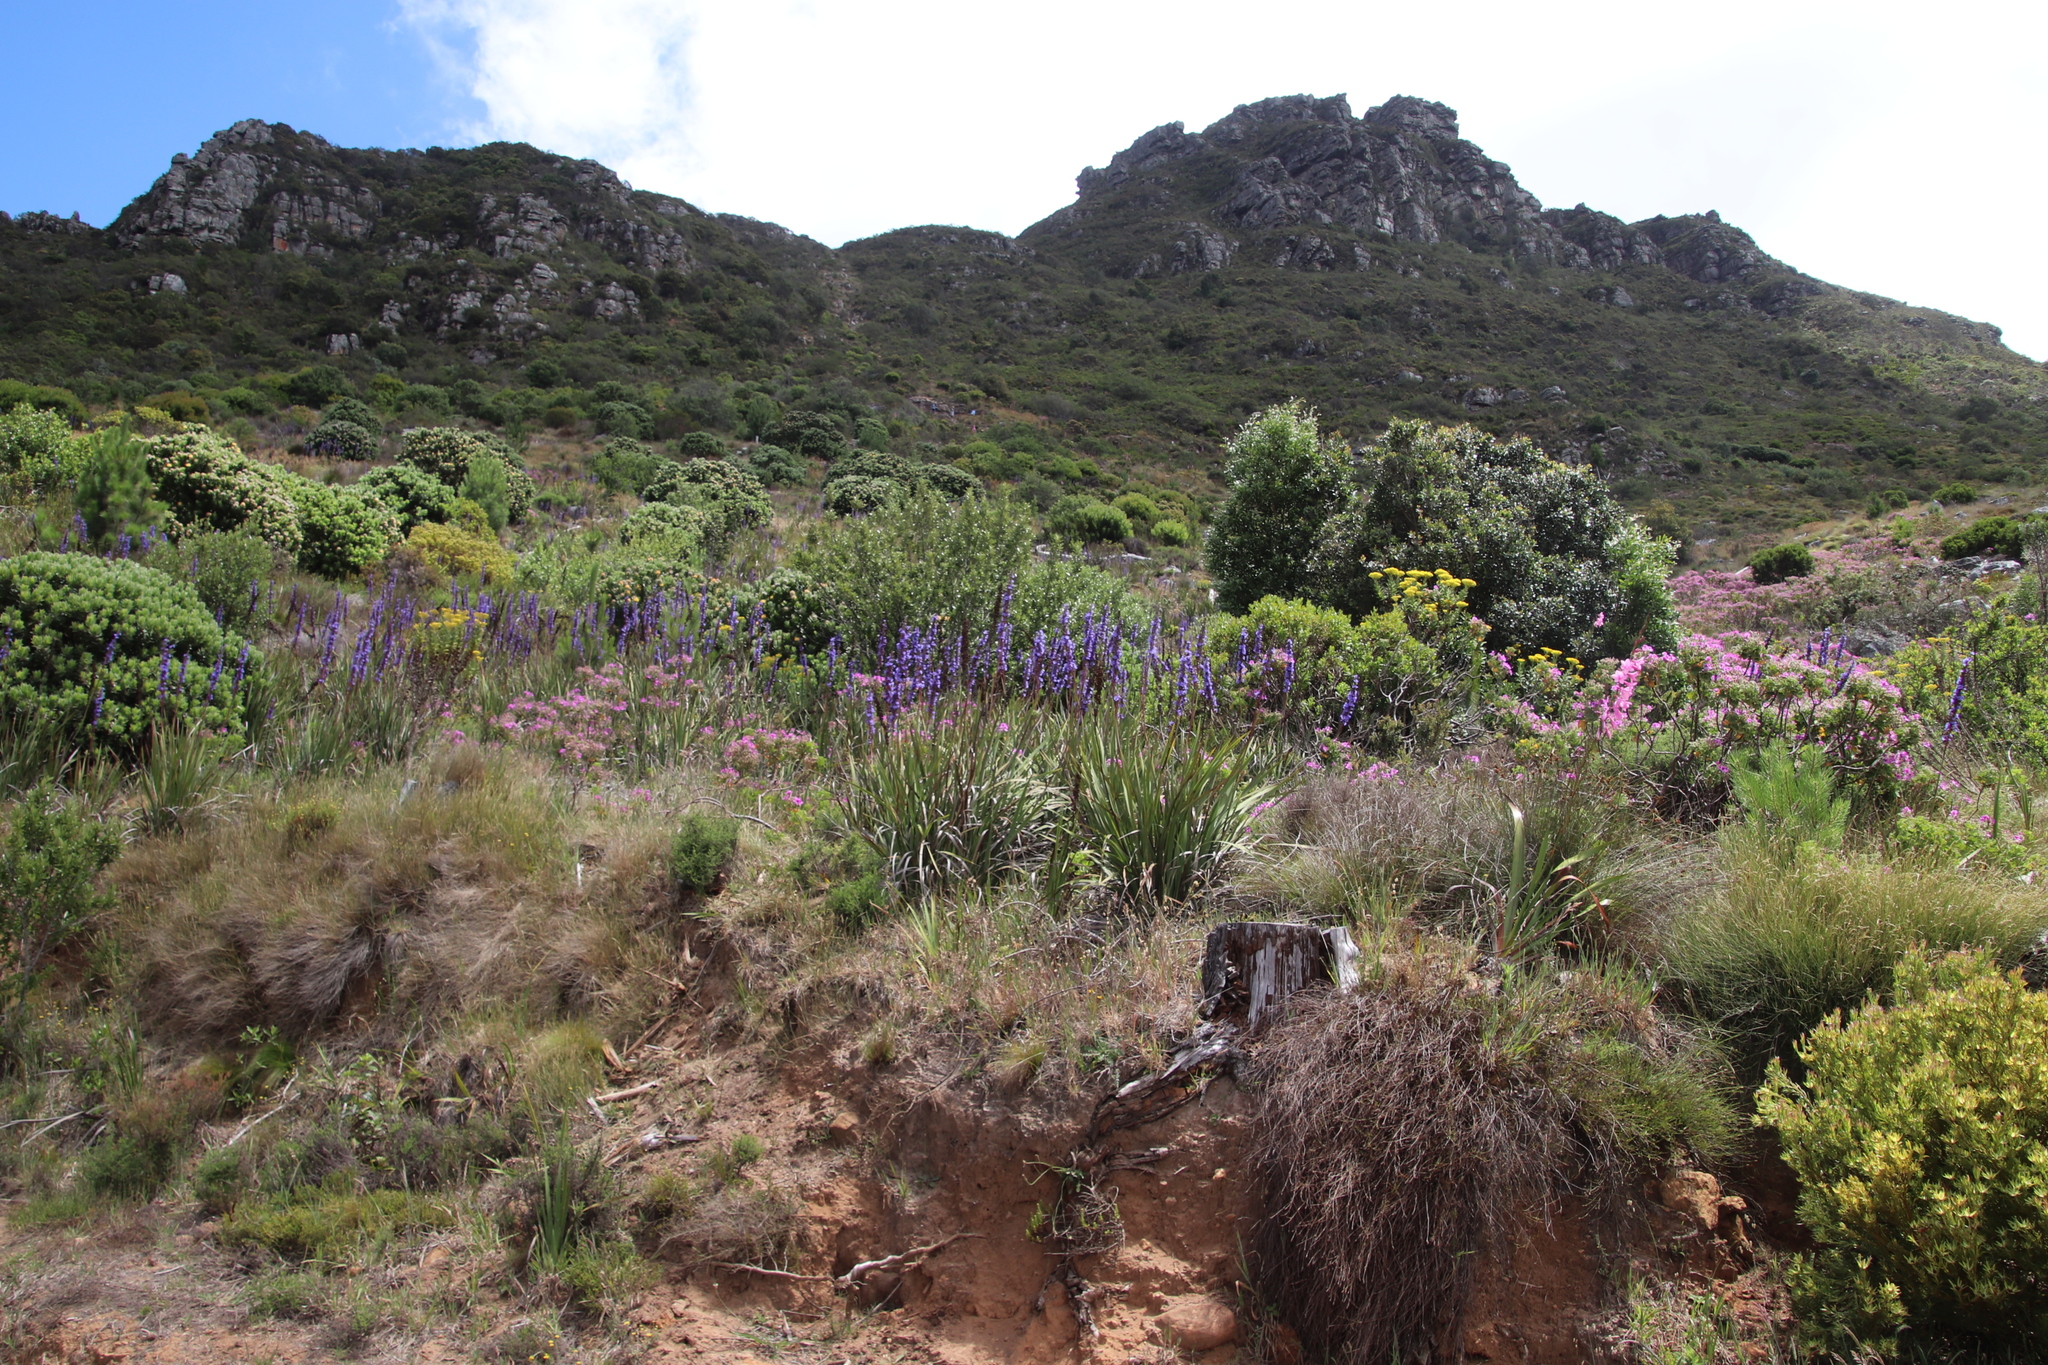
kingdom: Plantae
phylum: Tracheophyta
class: Liliopsida
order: Asparagales
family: Iridaceae
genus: Aristea
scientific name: Aristea capitata
